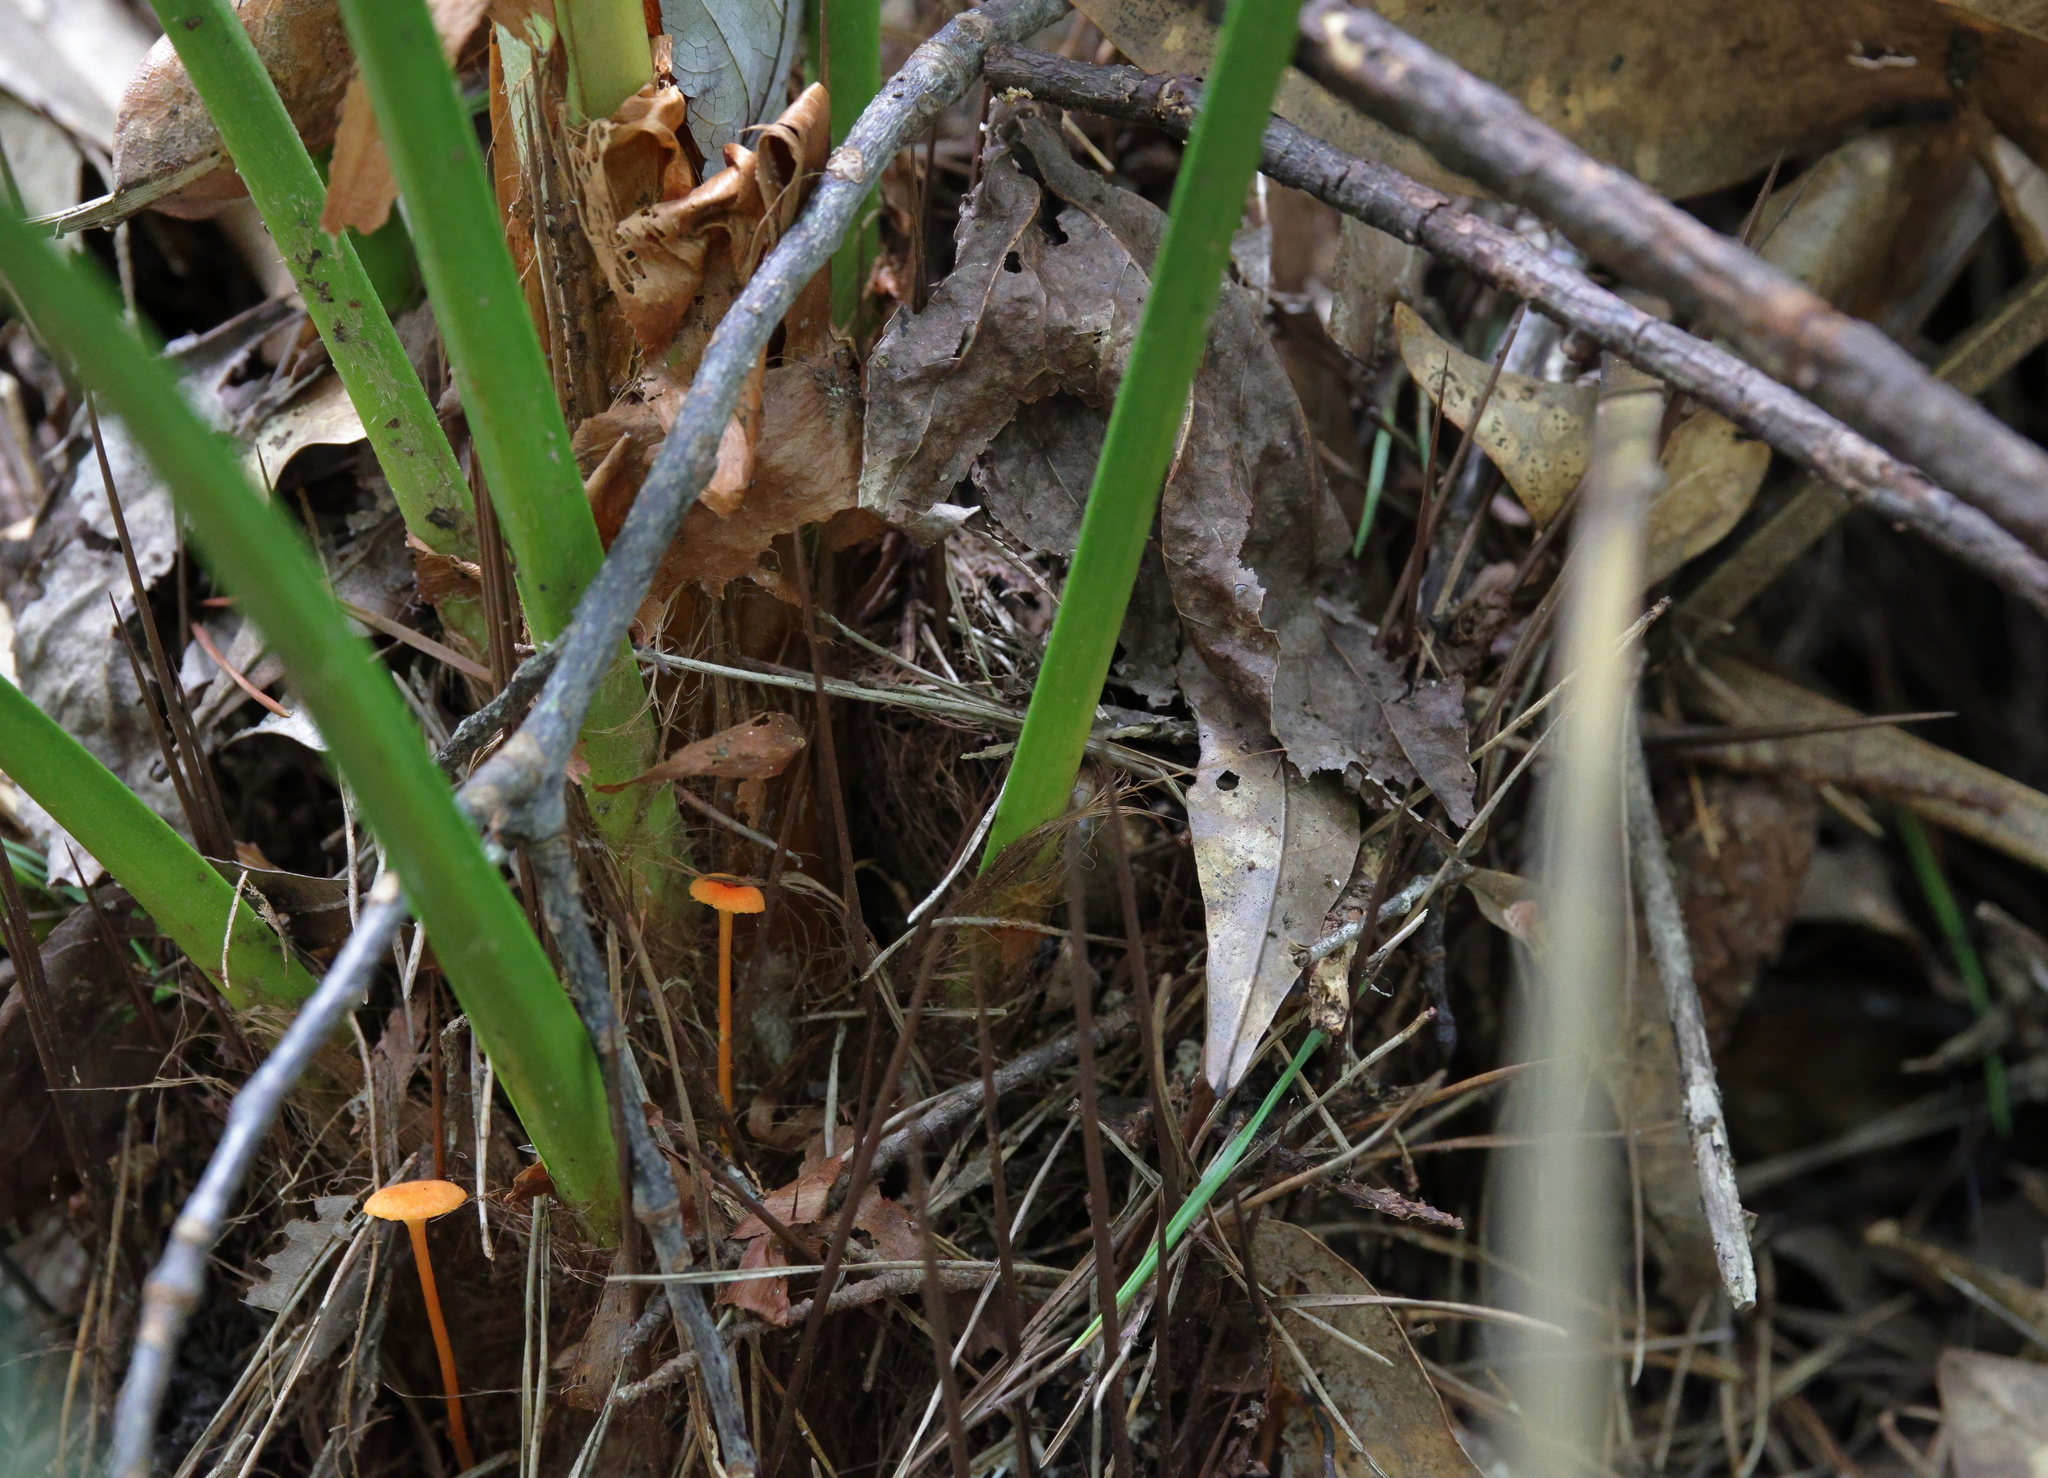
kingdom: Plantae
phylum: Tracheophyta
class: Liliopsida
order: Arecales
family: Arecaceae
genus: Rhapidophyllum
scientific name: Rhapidophyllum hystrix
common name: Porcupine palm
